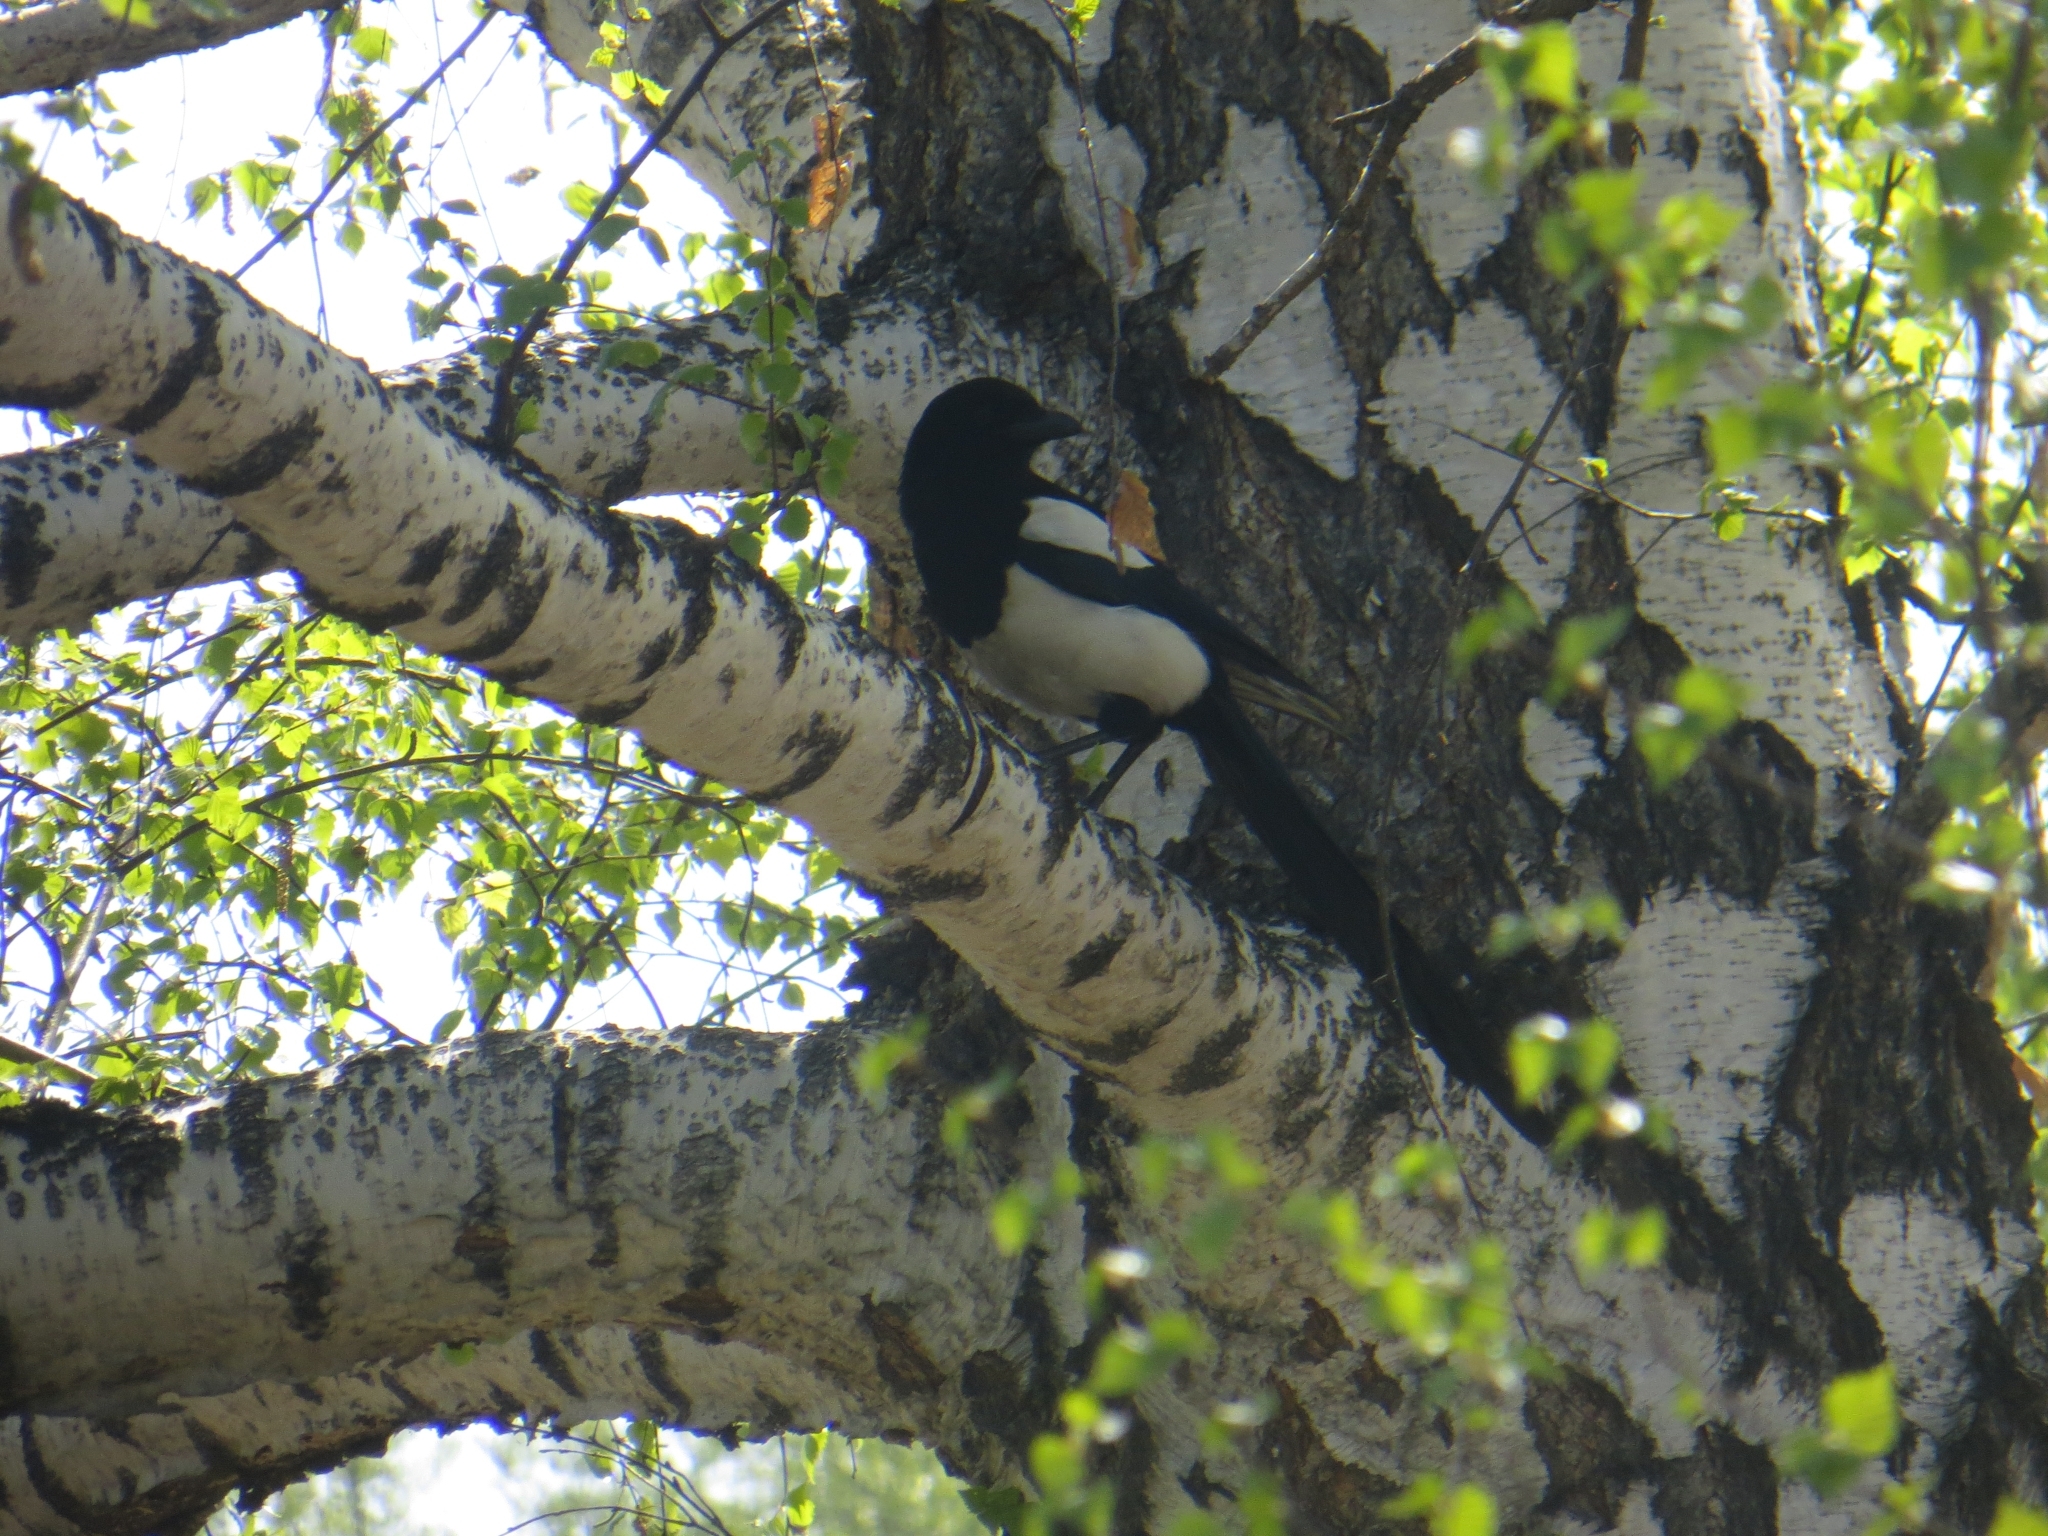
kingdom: Animalia
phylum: Chordata
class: Aves
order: Passeriformes
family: Corvidae
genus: Pica
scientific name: Pica pica
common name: Eurasian magpie
